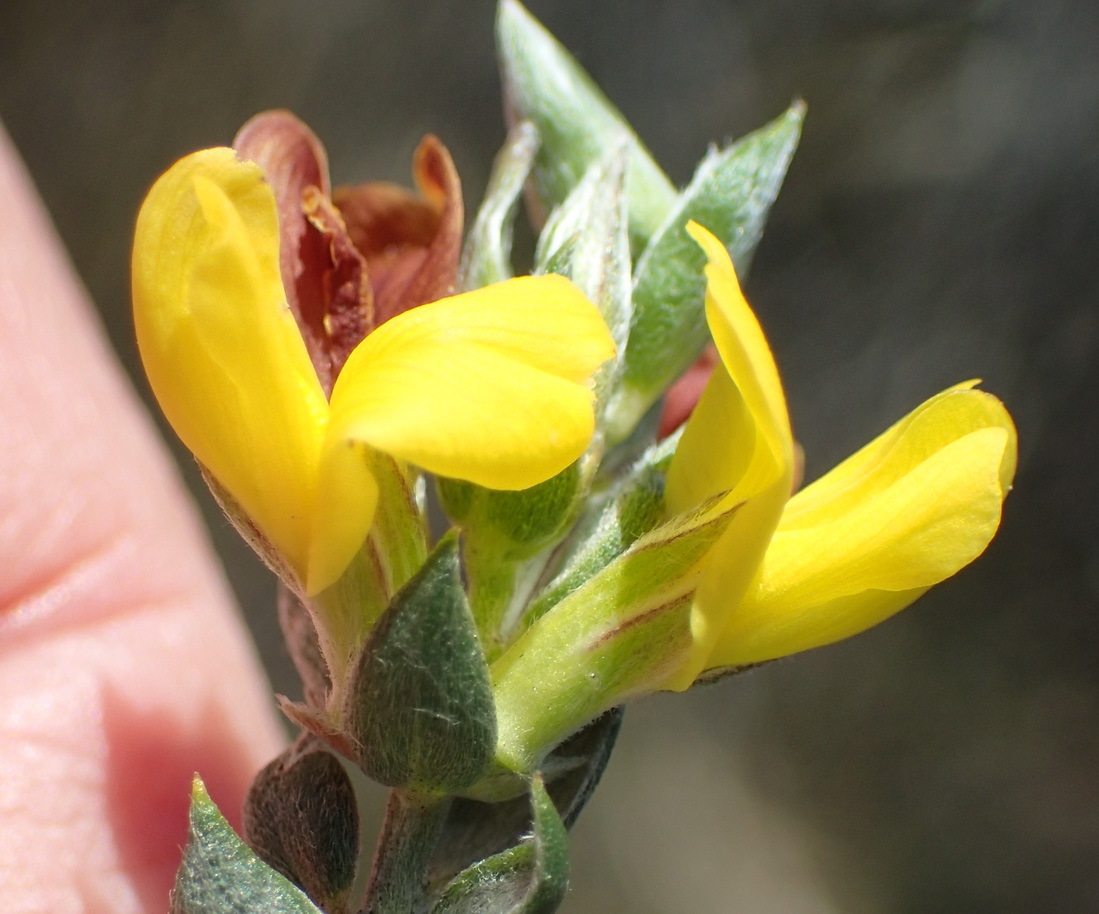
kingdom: Plantae
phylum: Tracheophyta
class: Magnoliopsida
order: Fabales
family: Fabaceae
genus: Amphithalea
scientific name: Amphithalea flava
